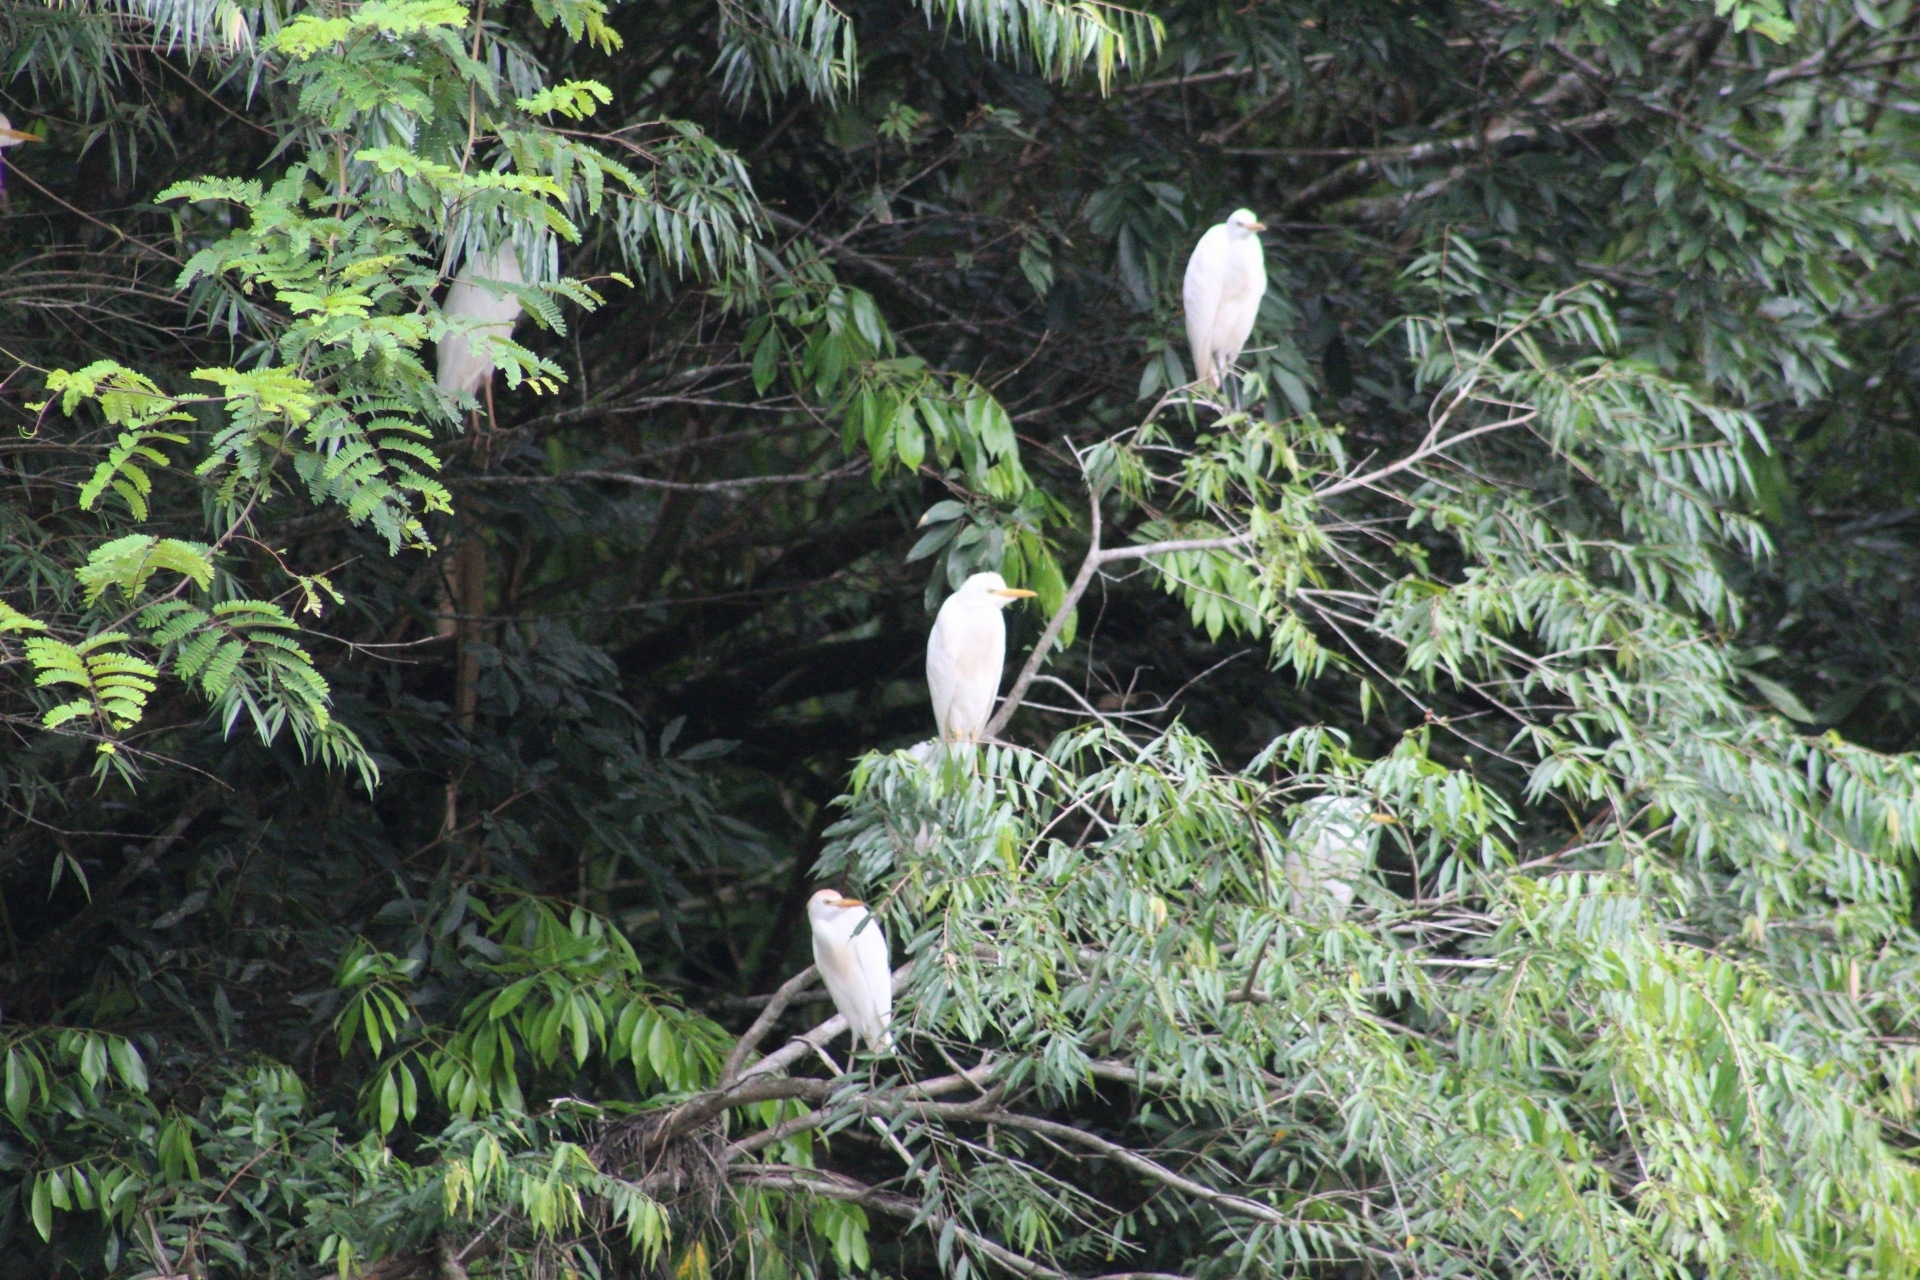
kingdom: Animalia
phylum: Chordata
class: Aves
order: Pelecaniformes
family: Ardeidae
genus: Bubulcus
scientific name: Bubulcus ibis
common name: Cattle egret
